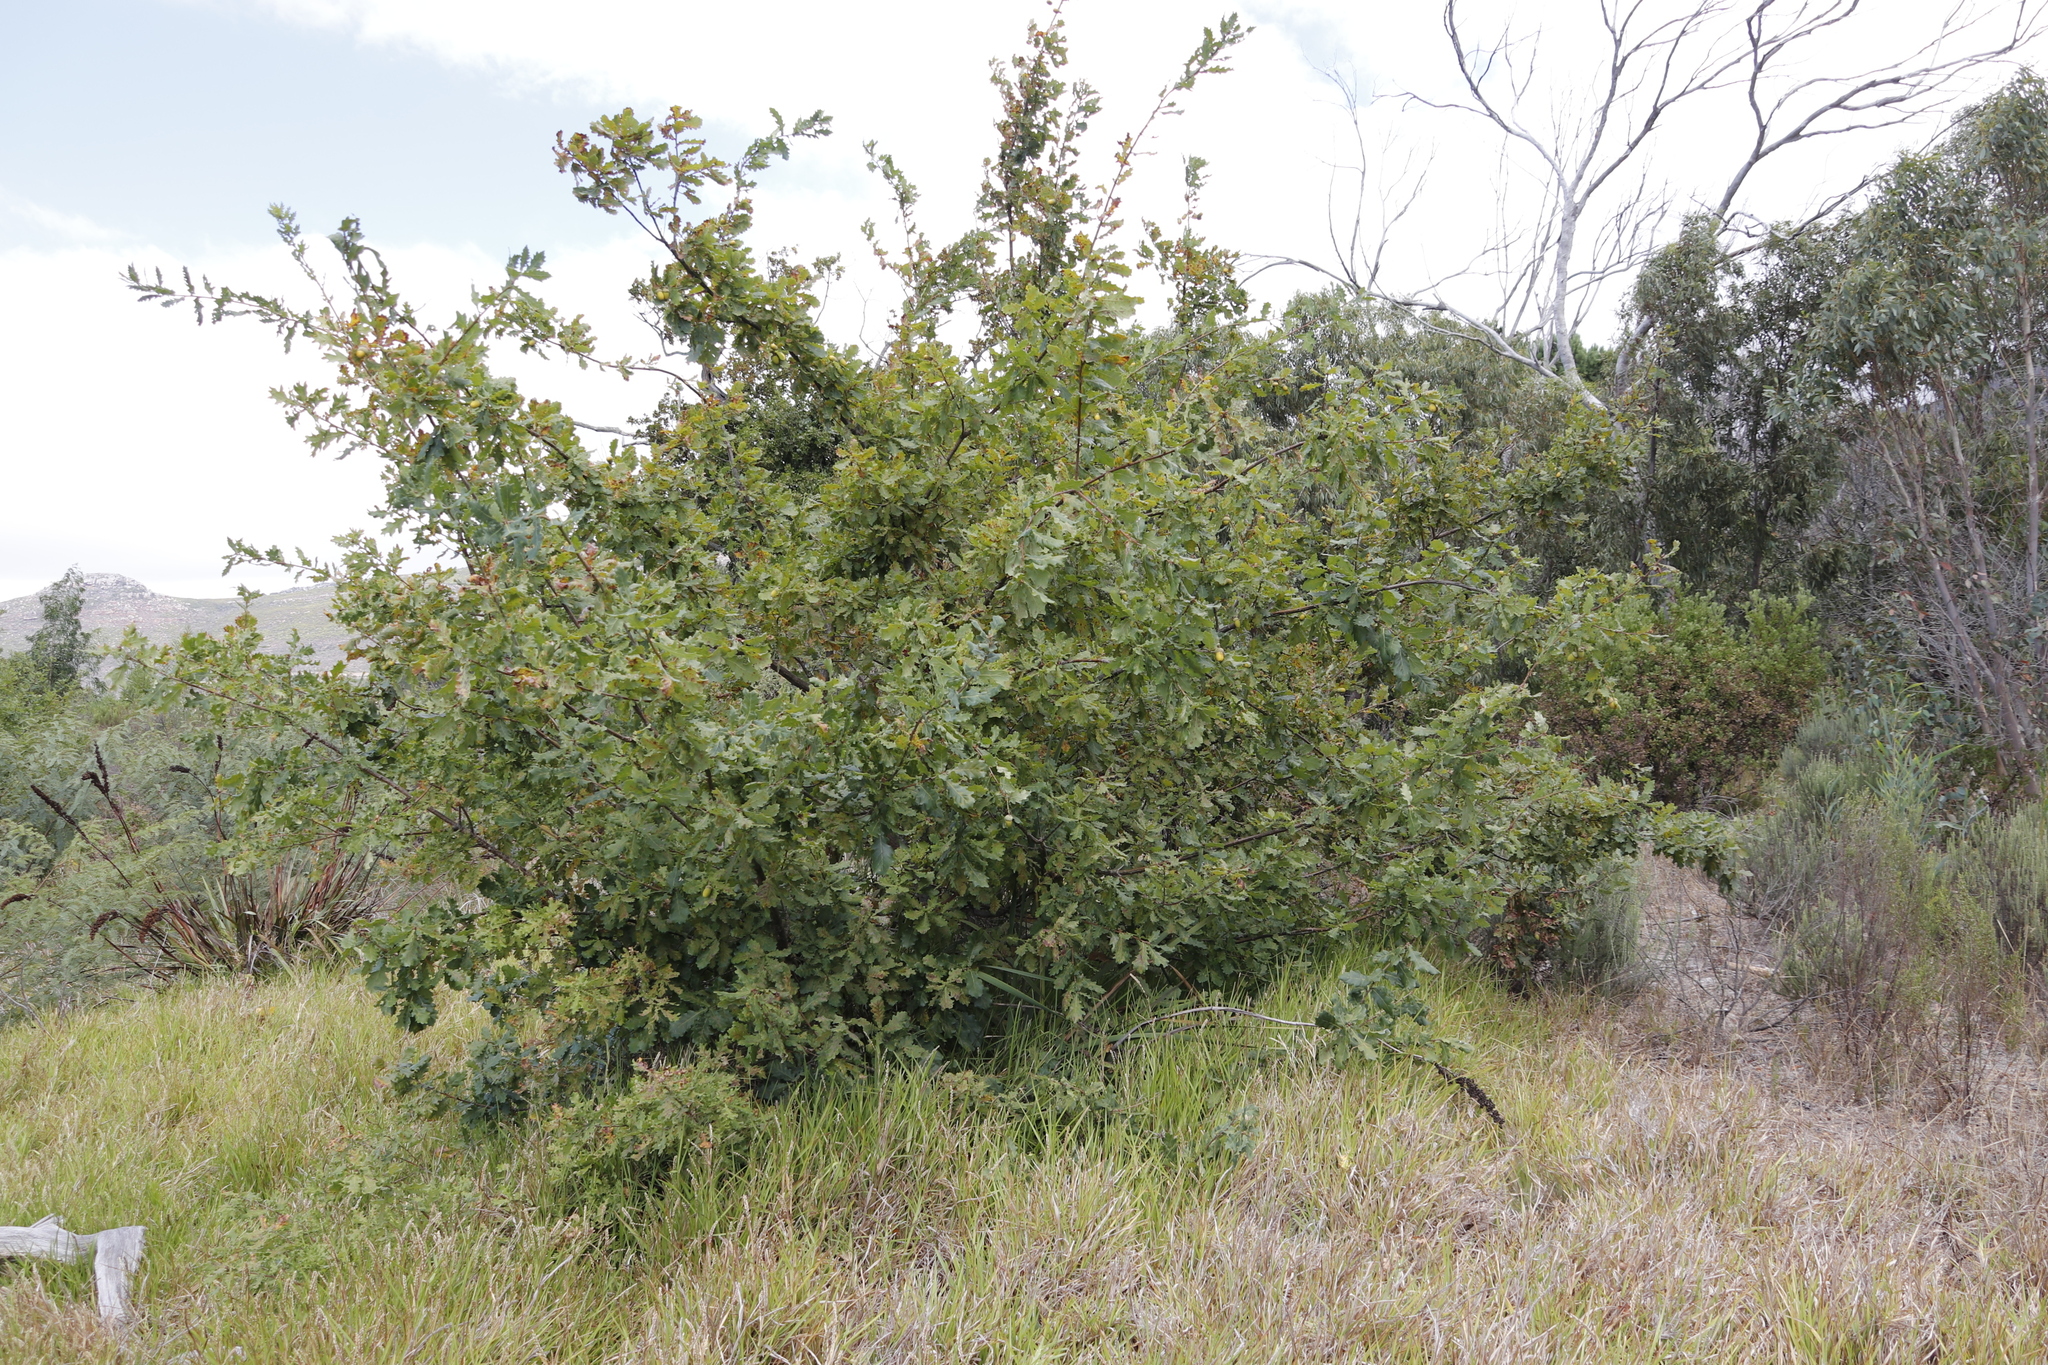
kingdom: Plantae
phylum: Tracheophyta
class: Magnoliopsida
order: Fagales
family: Fagaceae
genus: Quercus
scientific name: Quercus robur
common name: Pedunculate oak
